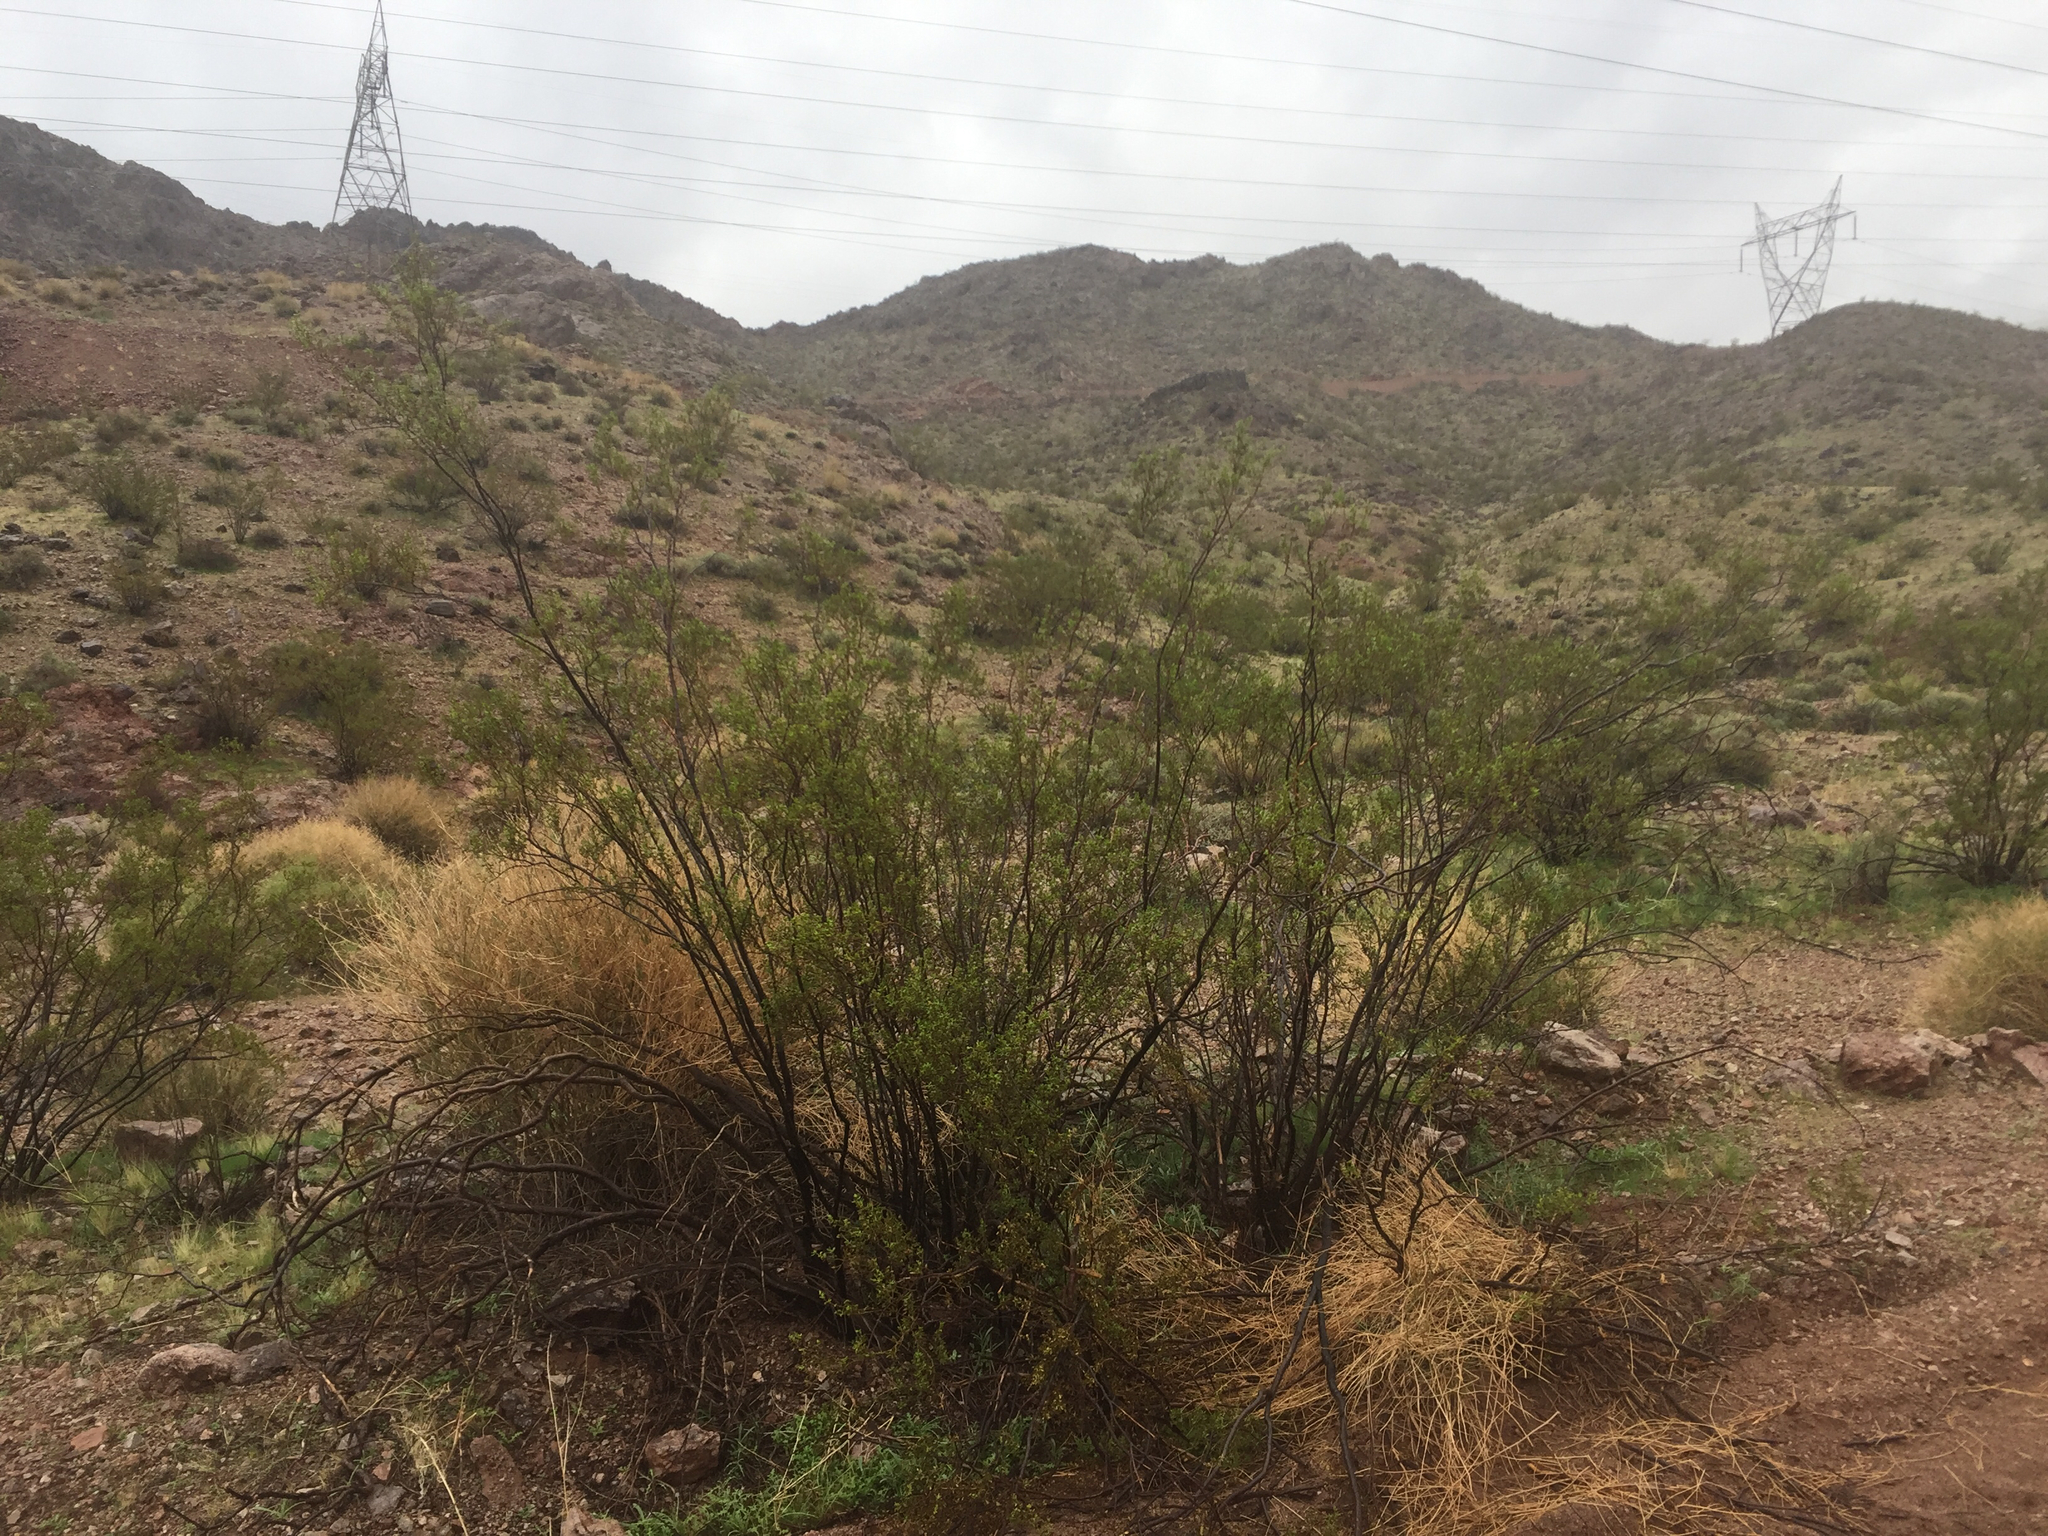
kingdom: Plantae
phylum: Tracheophyta
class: Magnoliopsida
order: Zygophyllales
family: Zygophyllaceae
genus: Larrea
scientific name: Larrea tridentata
